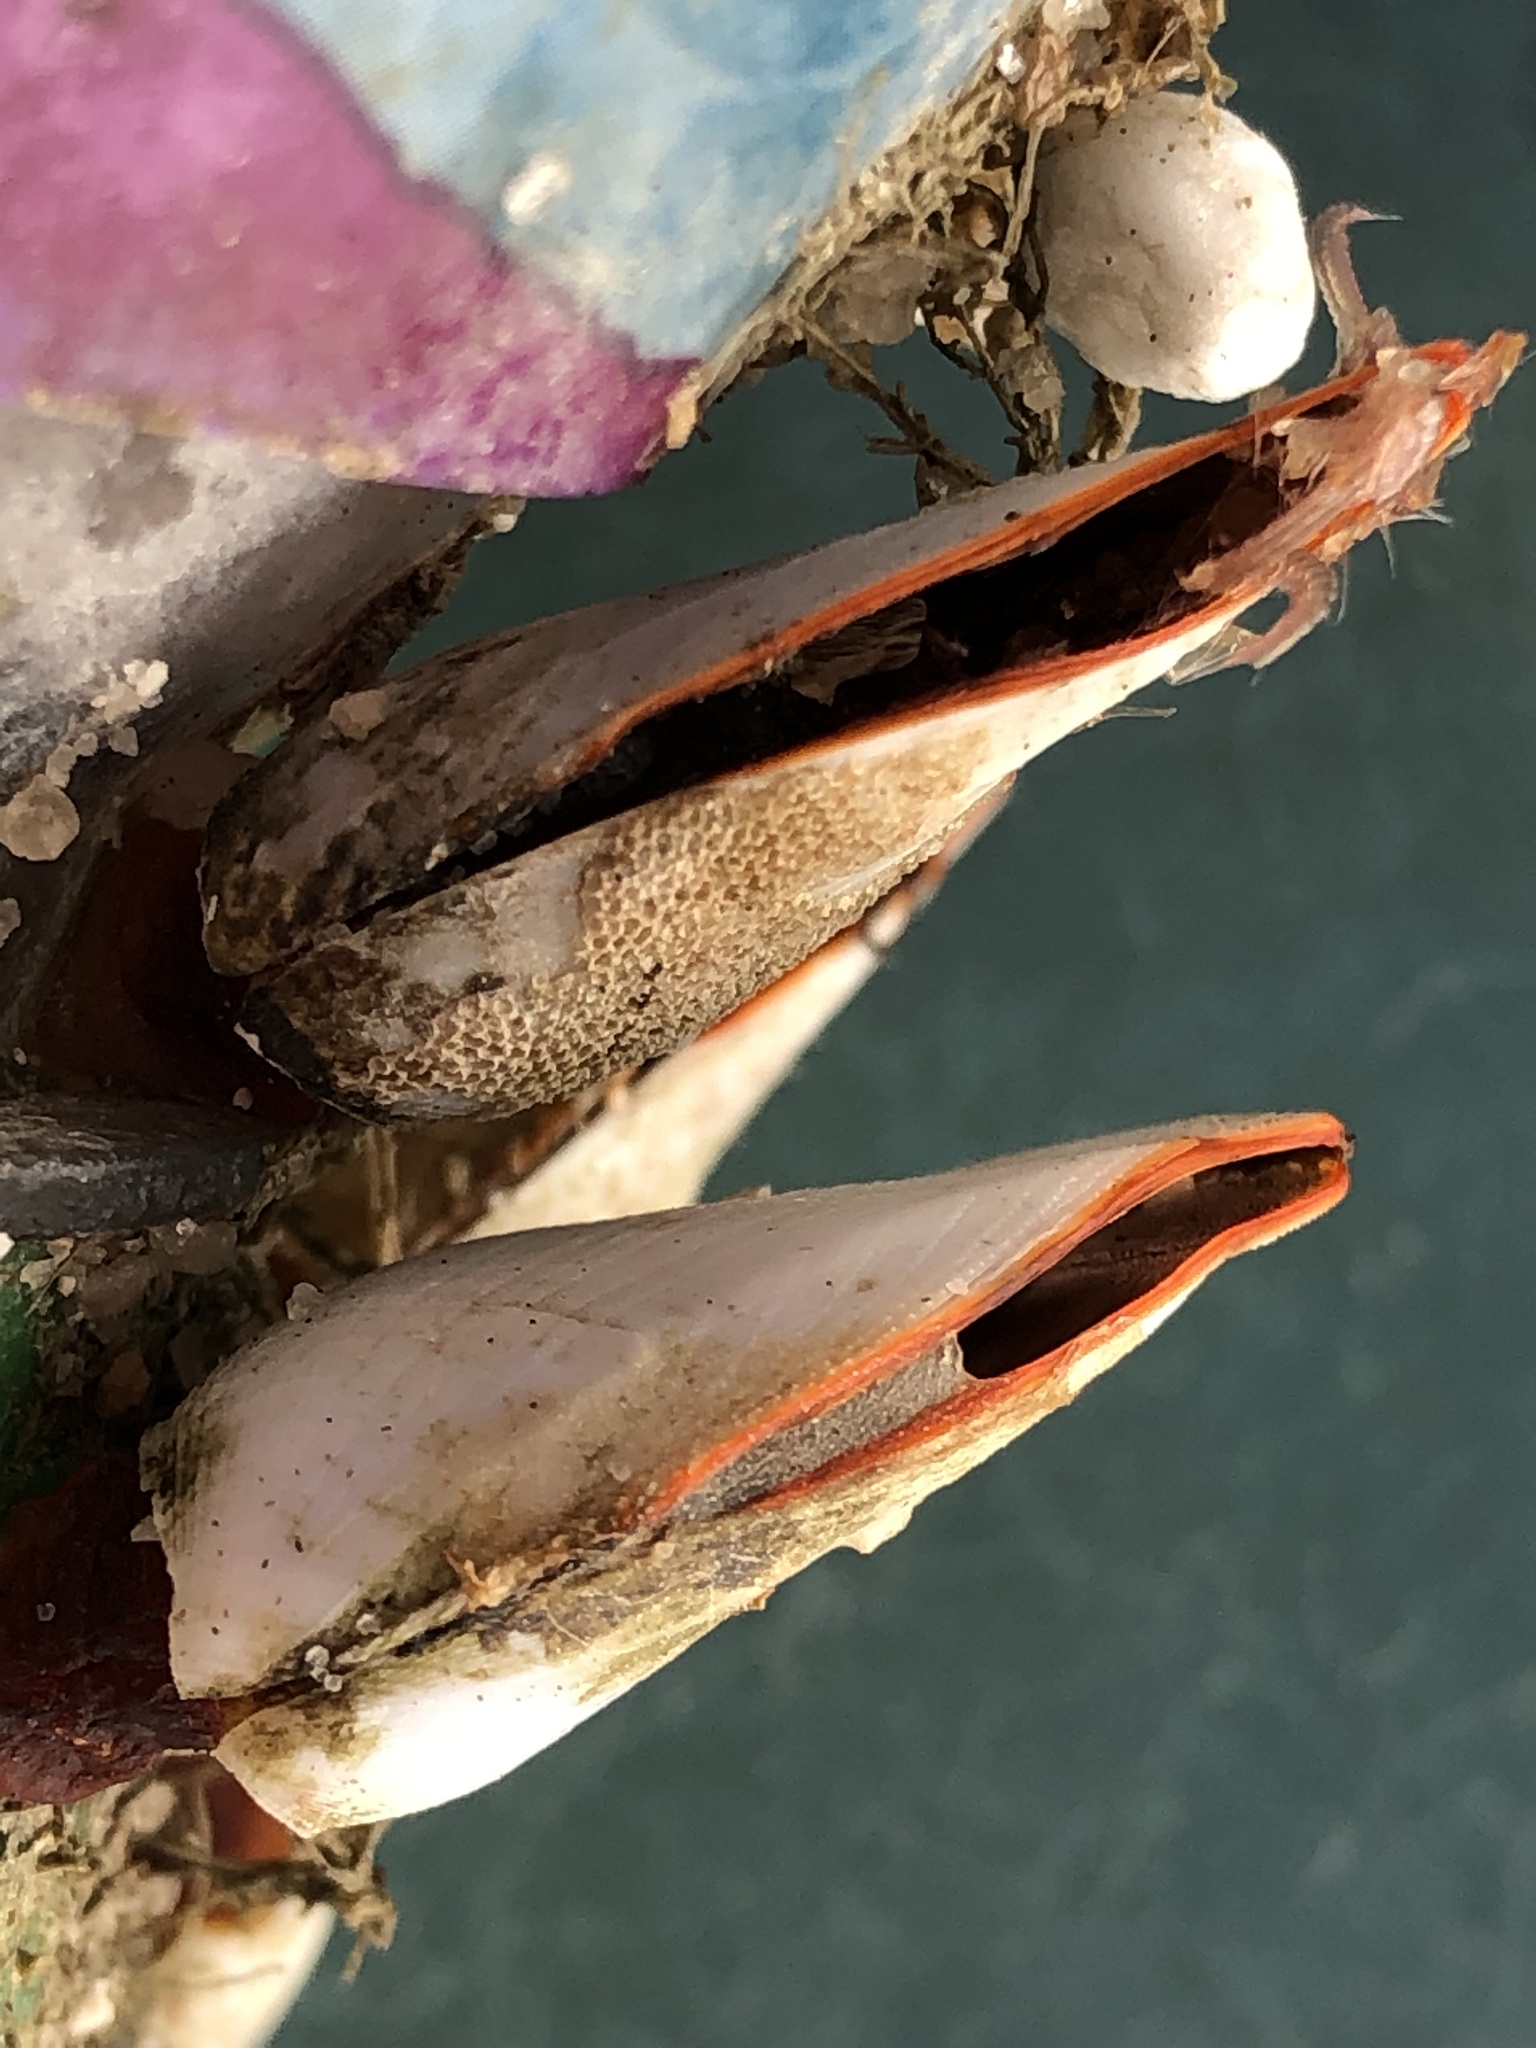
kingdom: Animalia
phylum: Arthropoda
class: Maxillopoda
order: Pedunculata
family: Lepadidae
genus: Lepas
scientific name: Lepas anserifera
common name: Goose barnacle
